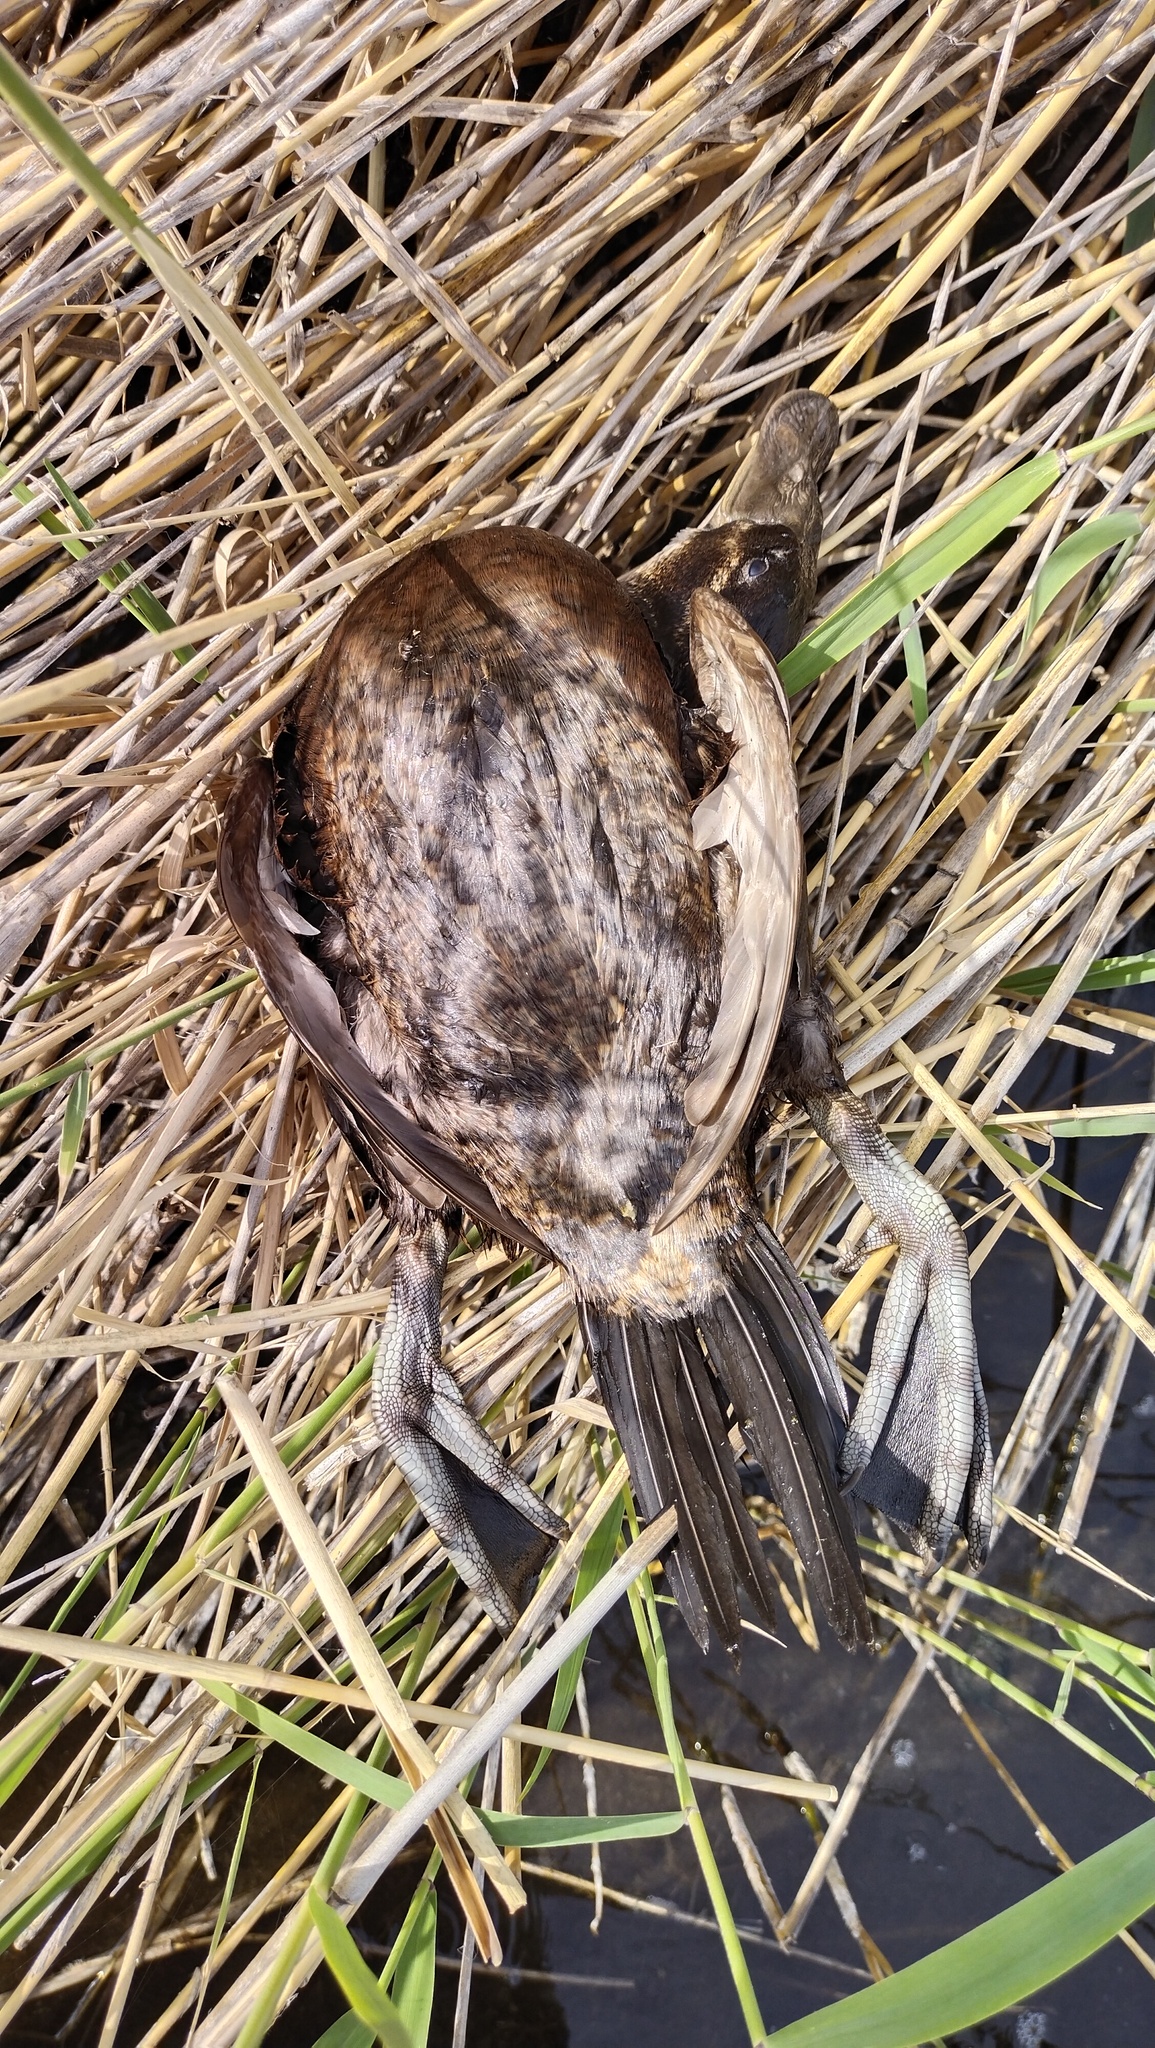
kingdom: Animalia
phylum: Chordata
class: Aves
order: Anseriformes
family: Anatidae
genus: Oxyura
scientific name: Oxyura leucocephala
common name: White-headed duck
